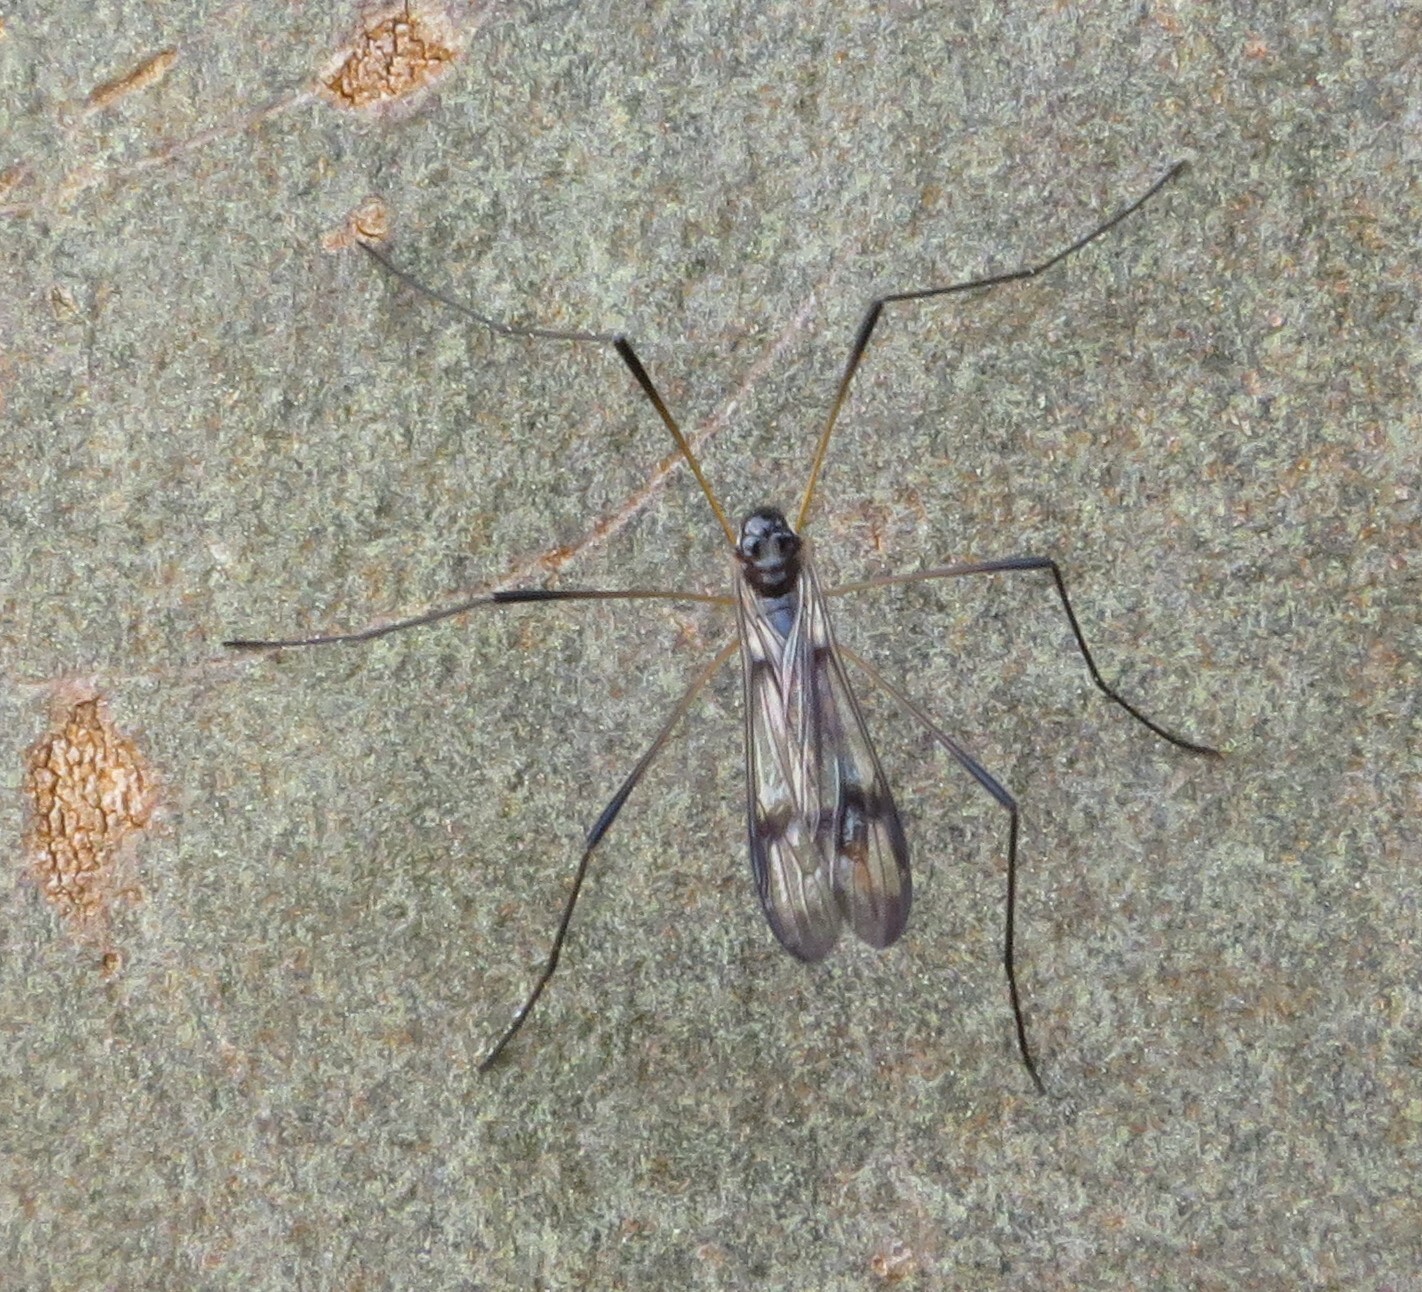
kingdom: Animalia
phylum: Arthropoda
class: Insecta
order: Diptera
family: Limoniidae
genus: Helius
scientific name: Helius harrisi
